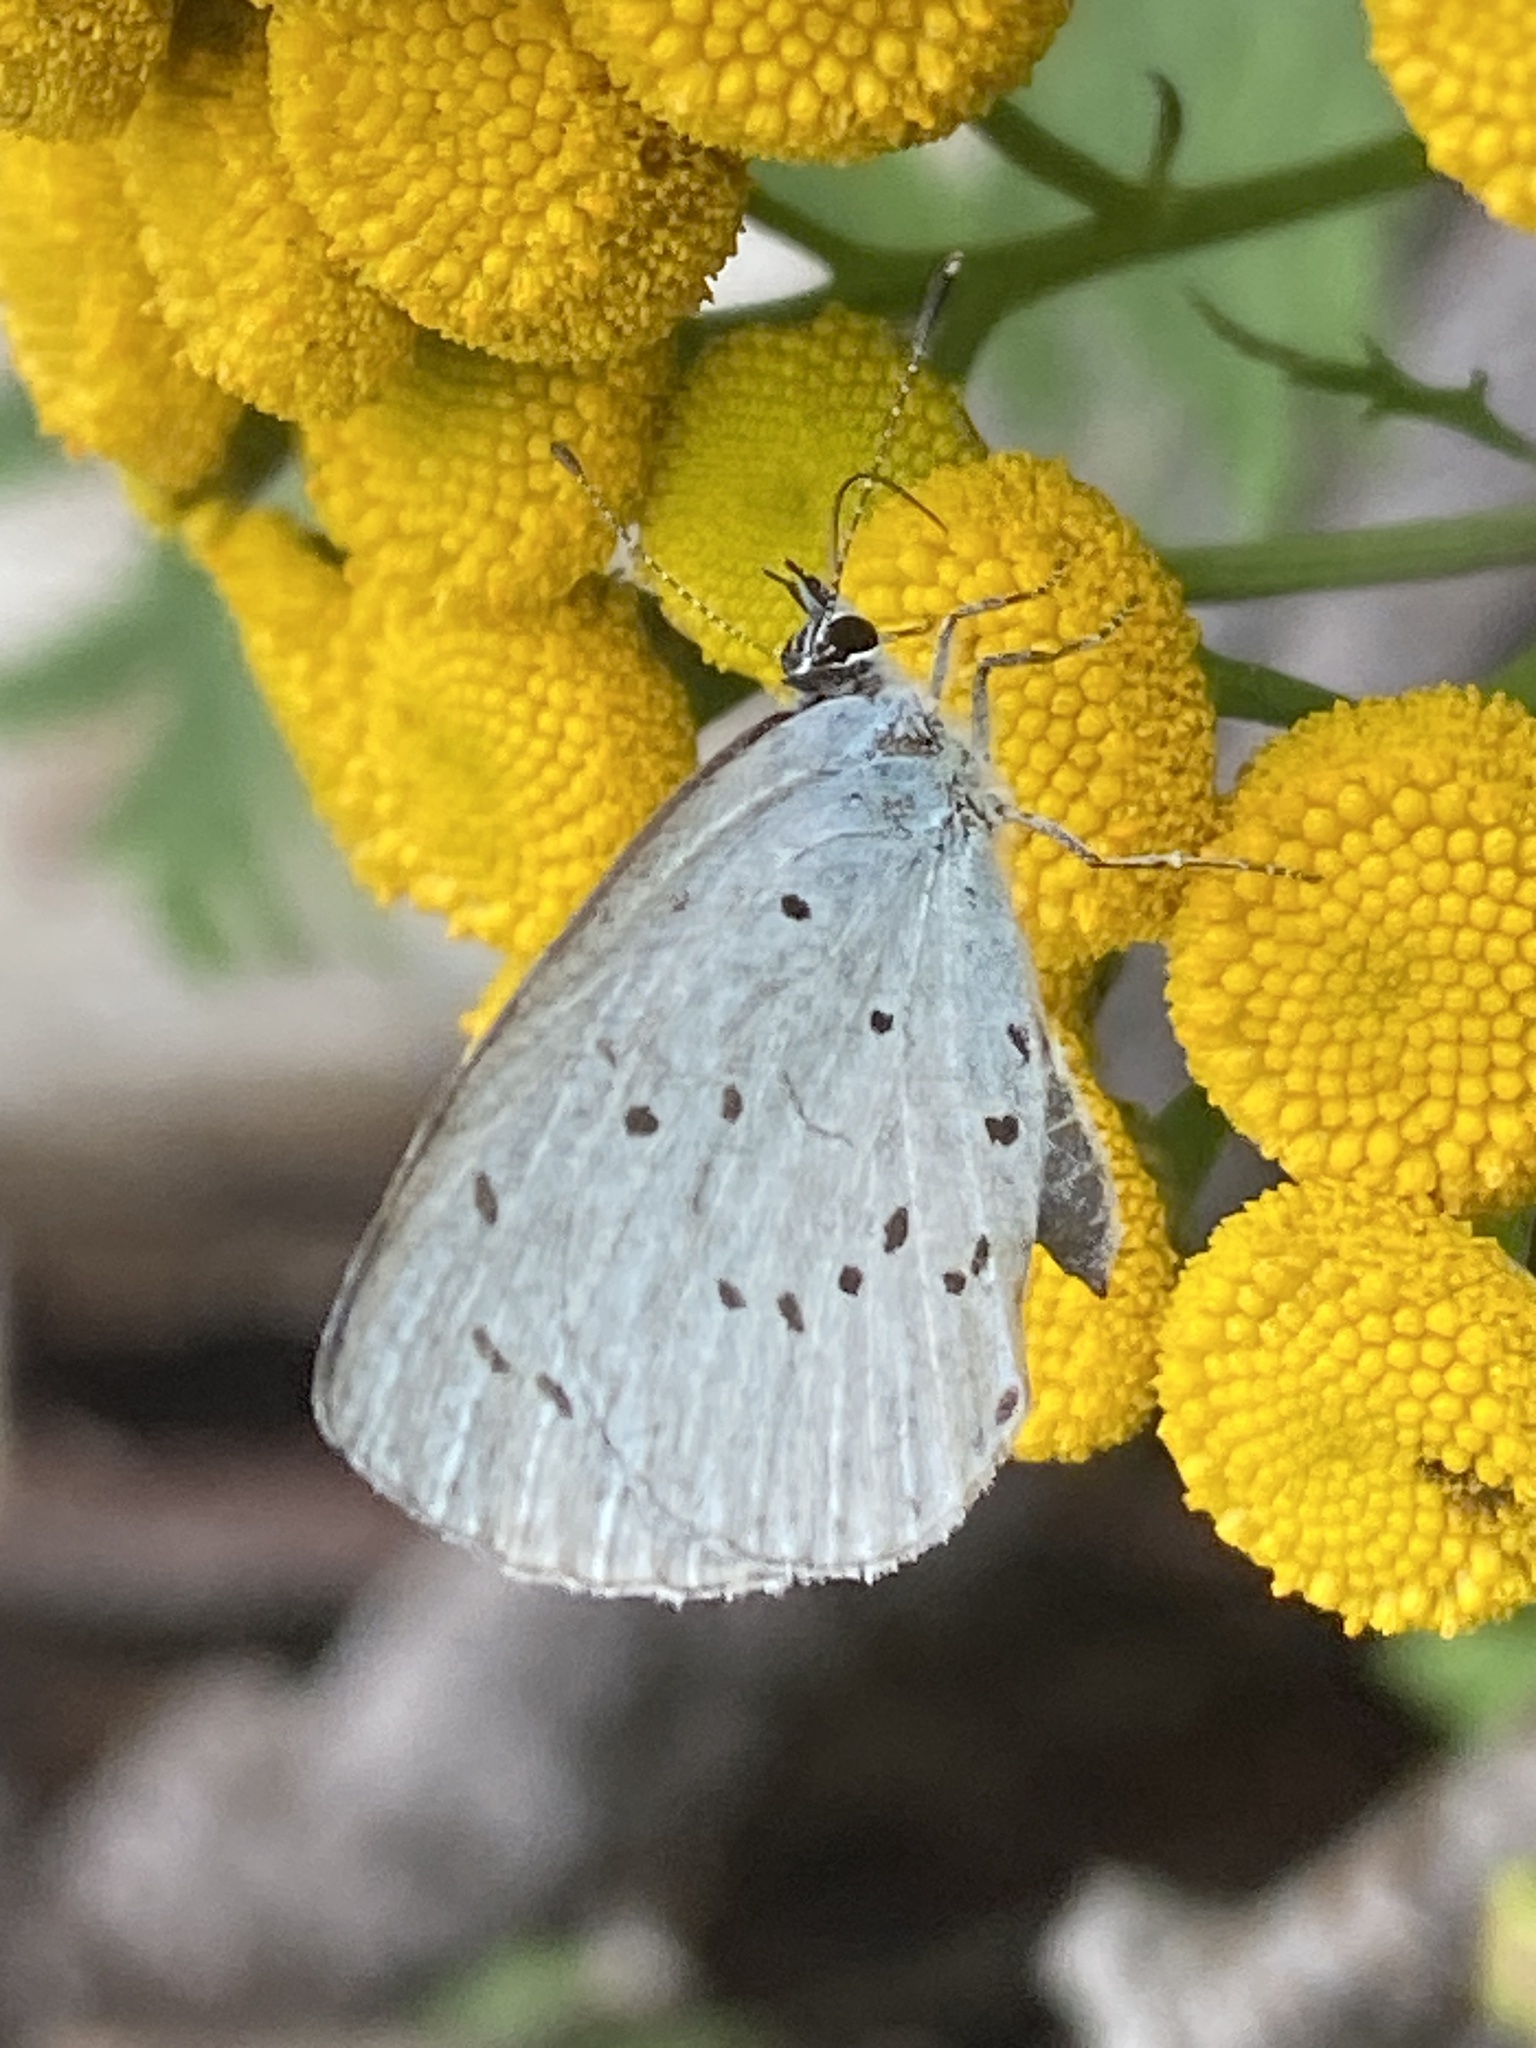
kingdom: Animalia
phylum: Arthropoda
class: Insecta
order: Lepidoptera
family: Lycaenidae
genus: Celastrina
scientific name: Celastrina argiolus
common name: Holly blue
